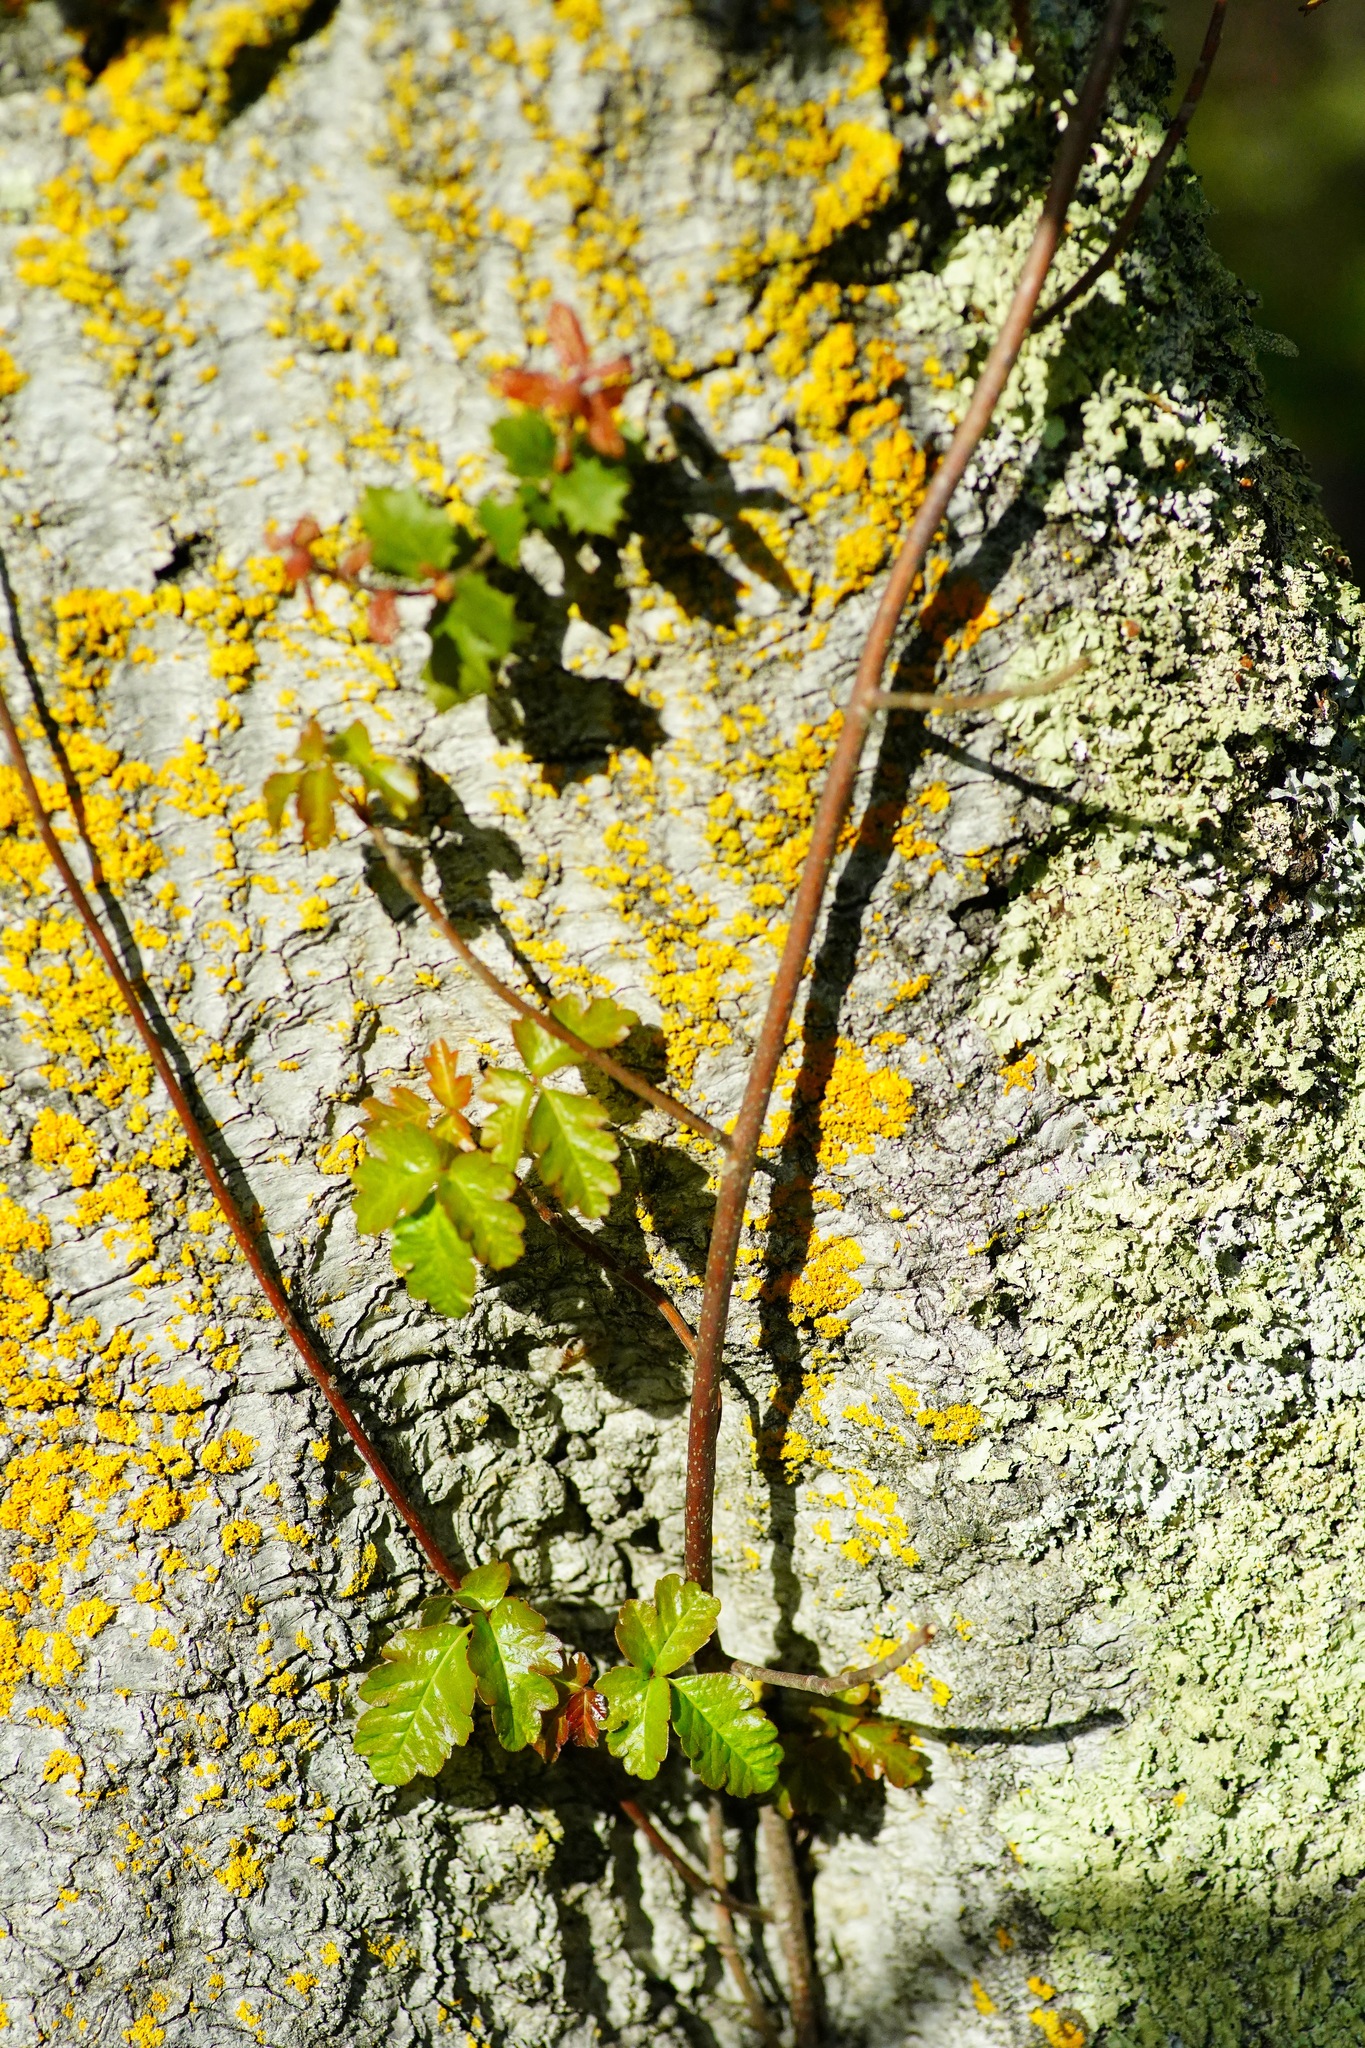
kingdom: Plantae
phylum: Tracheophyta
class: Magnoliopsida
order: Sapindales
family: Anacardiaceae
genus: Toxicodendron
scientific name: Toxicodendron diversilobum
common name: Pacific poison-oak
